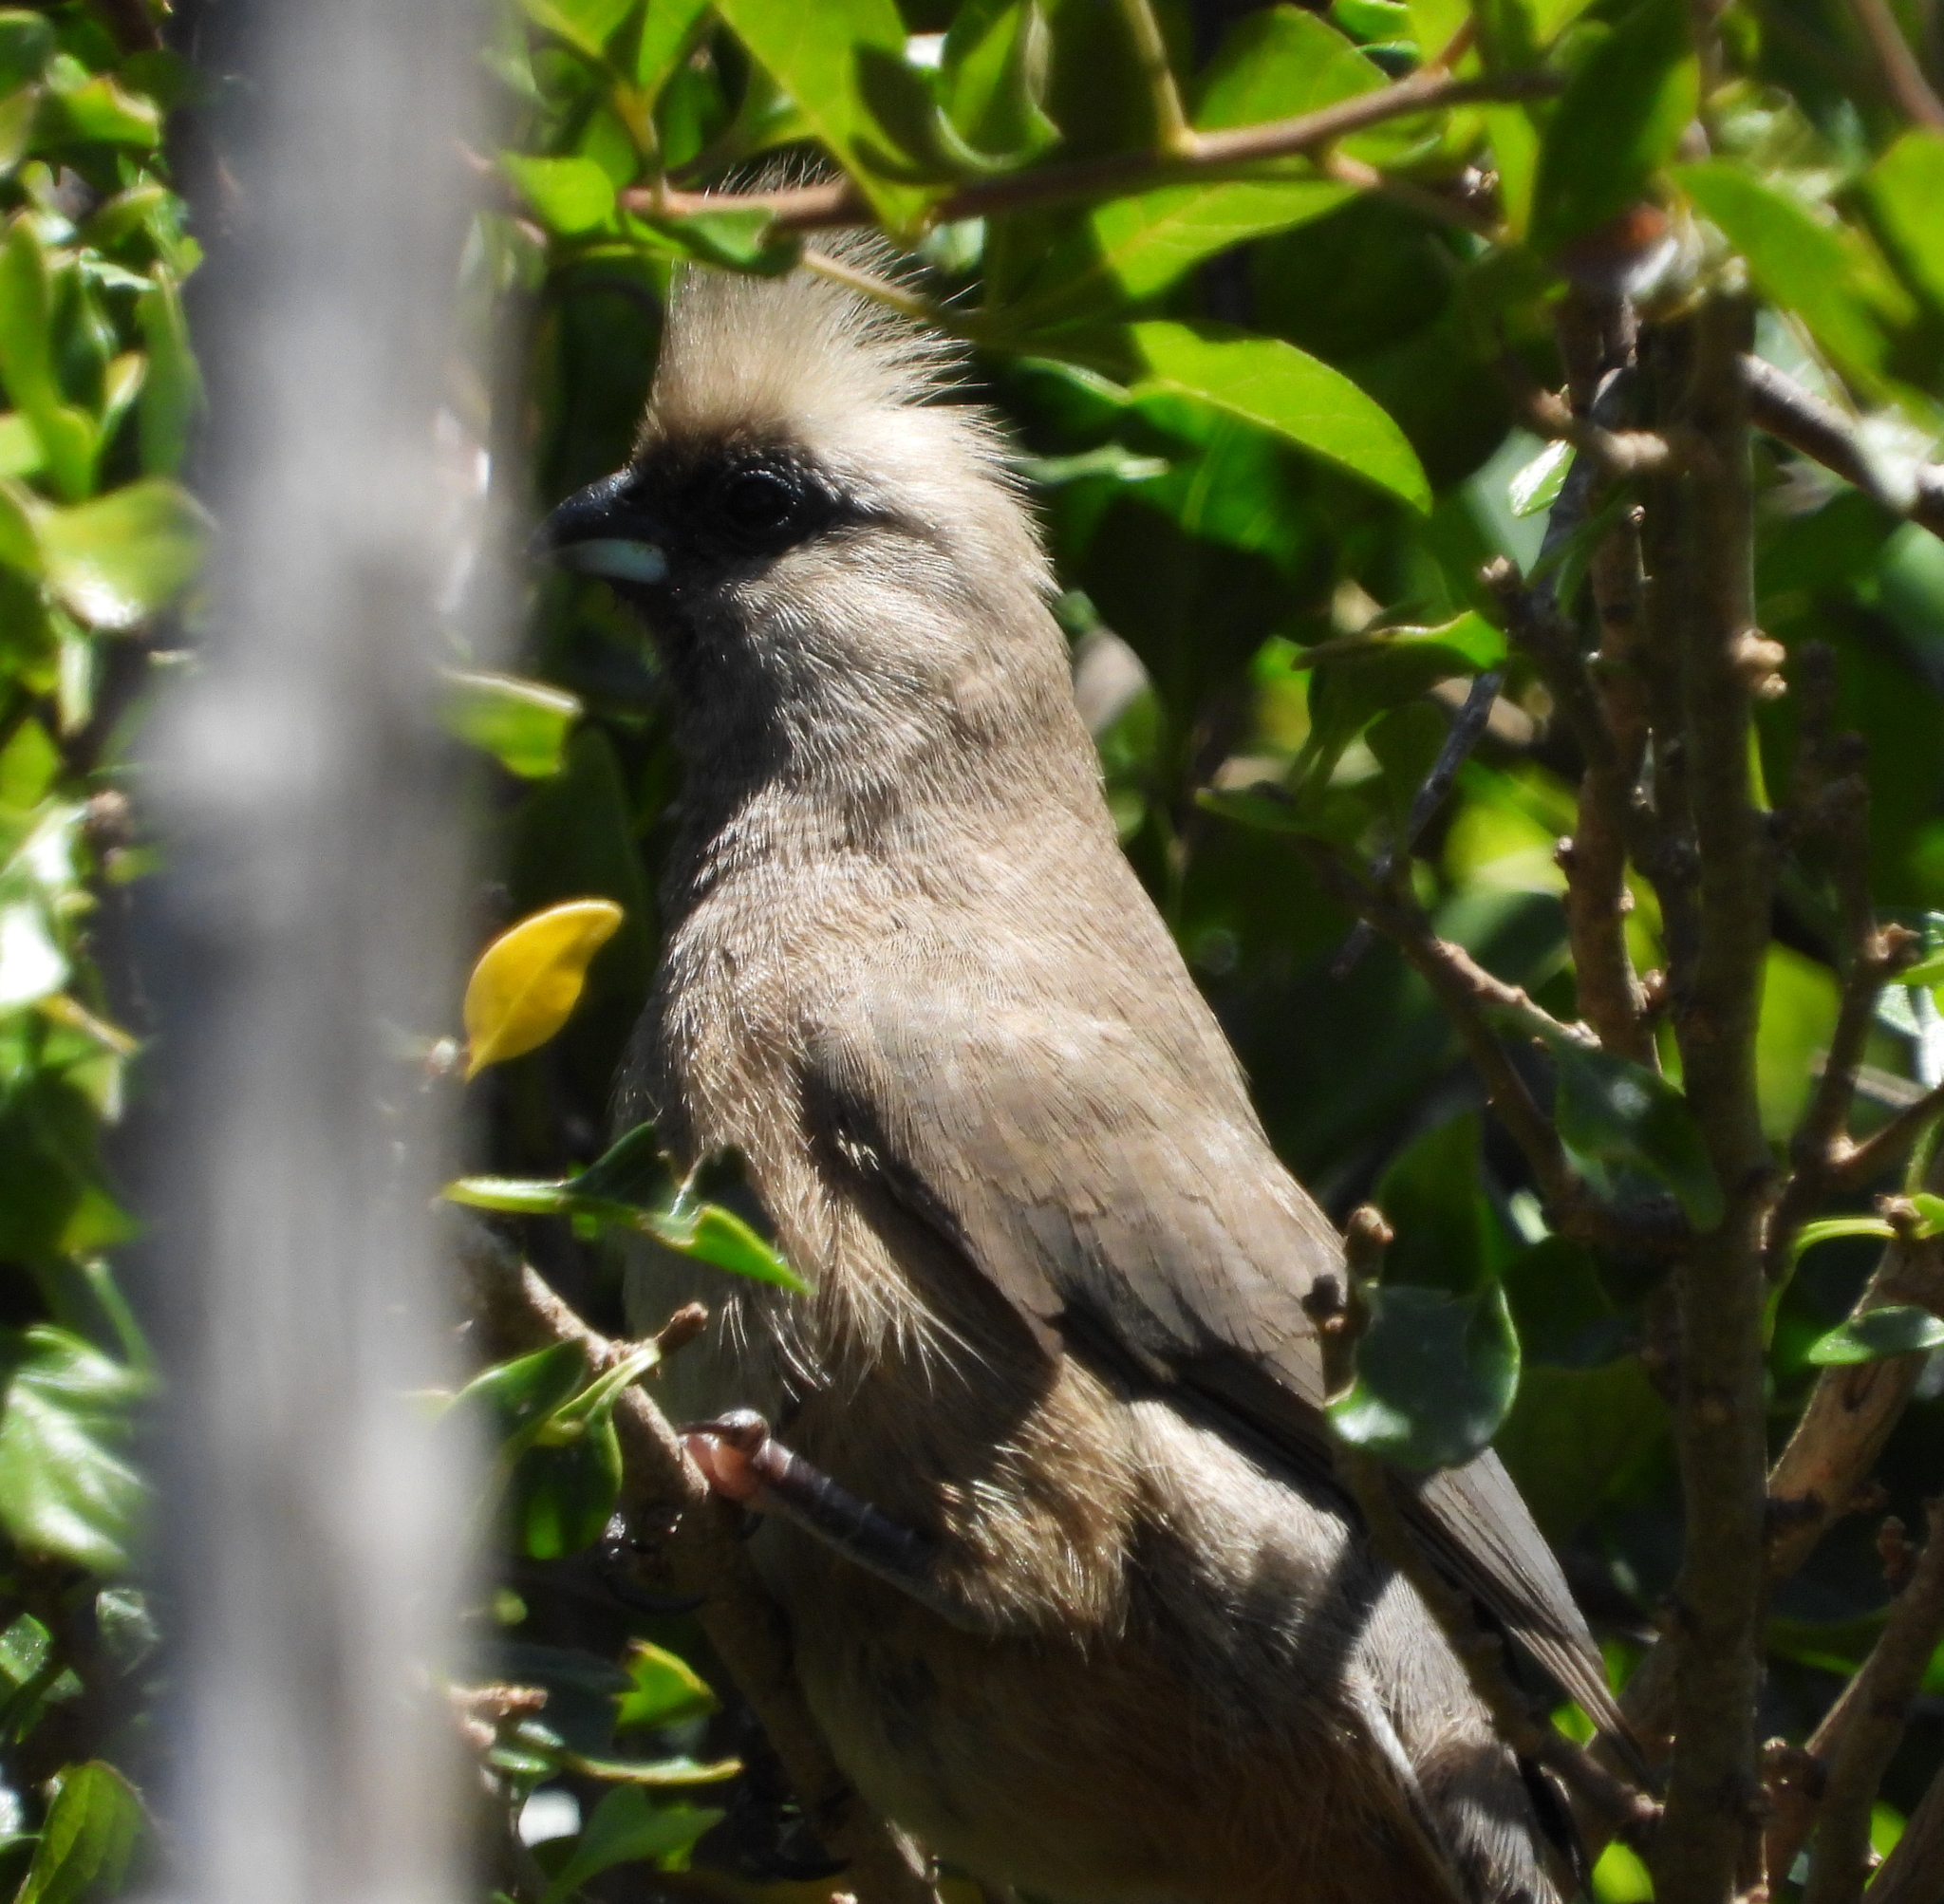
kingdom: Animalia
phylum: Chordata
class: Aves
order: Coliiformes
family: Coliidae
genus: Colius
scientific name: Colius striatus
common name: Speckled mousebird
